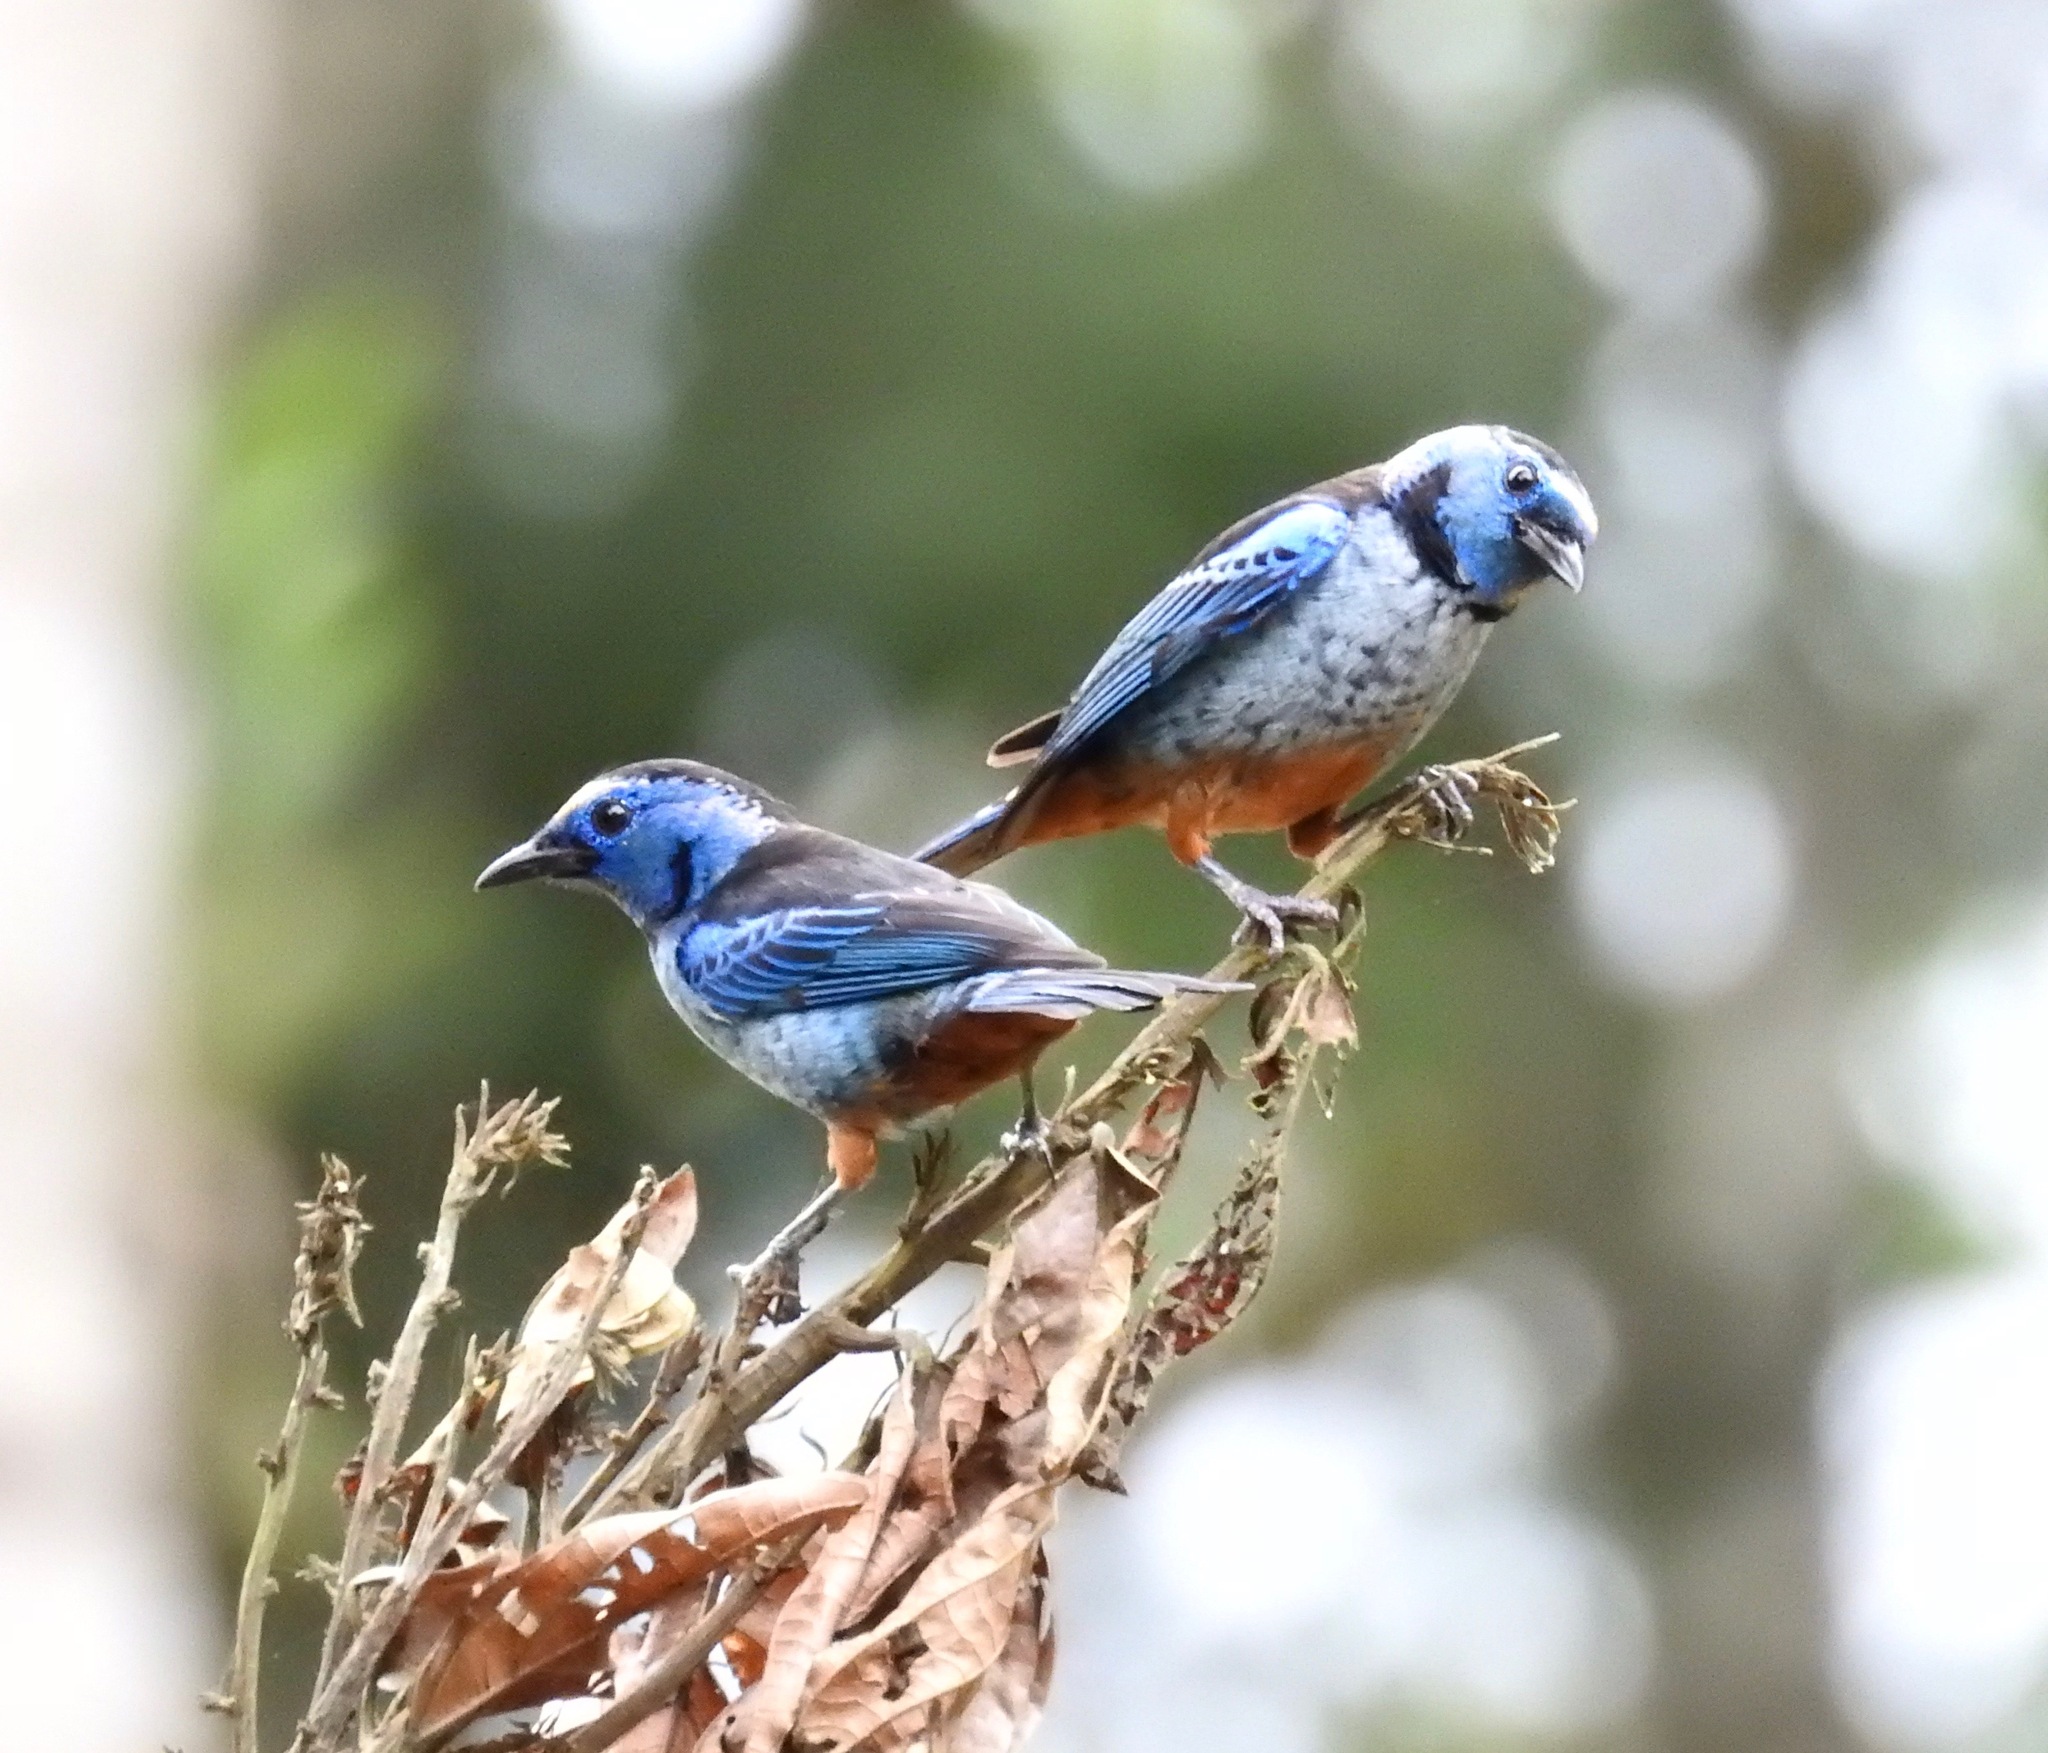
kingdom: Animalia
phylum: Chordata
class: Aves
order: Passeriformes
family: Thraupidae
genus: Tangara
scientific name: Tangara velia
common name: Opal-rumped tanager
